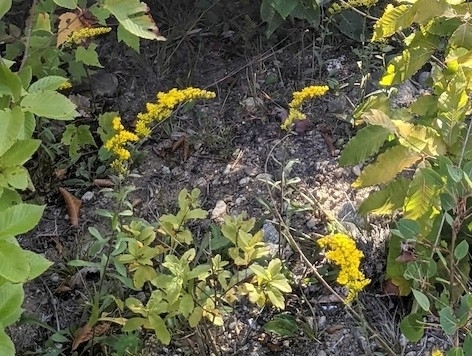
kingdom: Plantae
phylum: Tracheophyta
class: Magnoliopsida
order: Asterales
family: Asteraceae
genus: Solidago
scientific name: Solidago nemoralis
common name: Grey goldenrod
